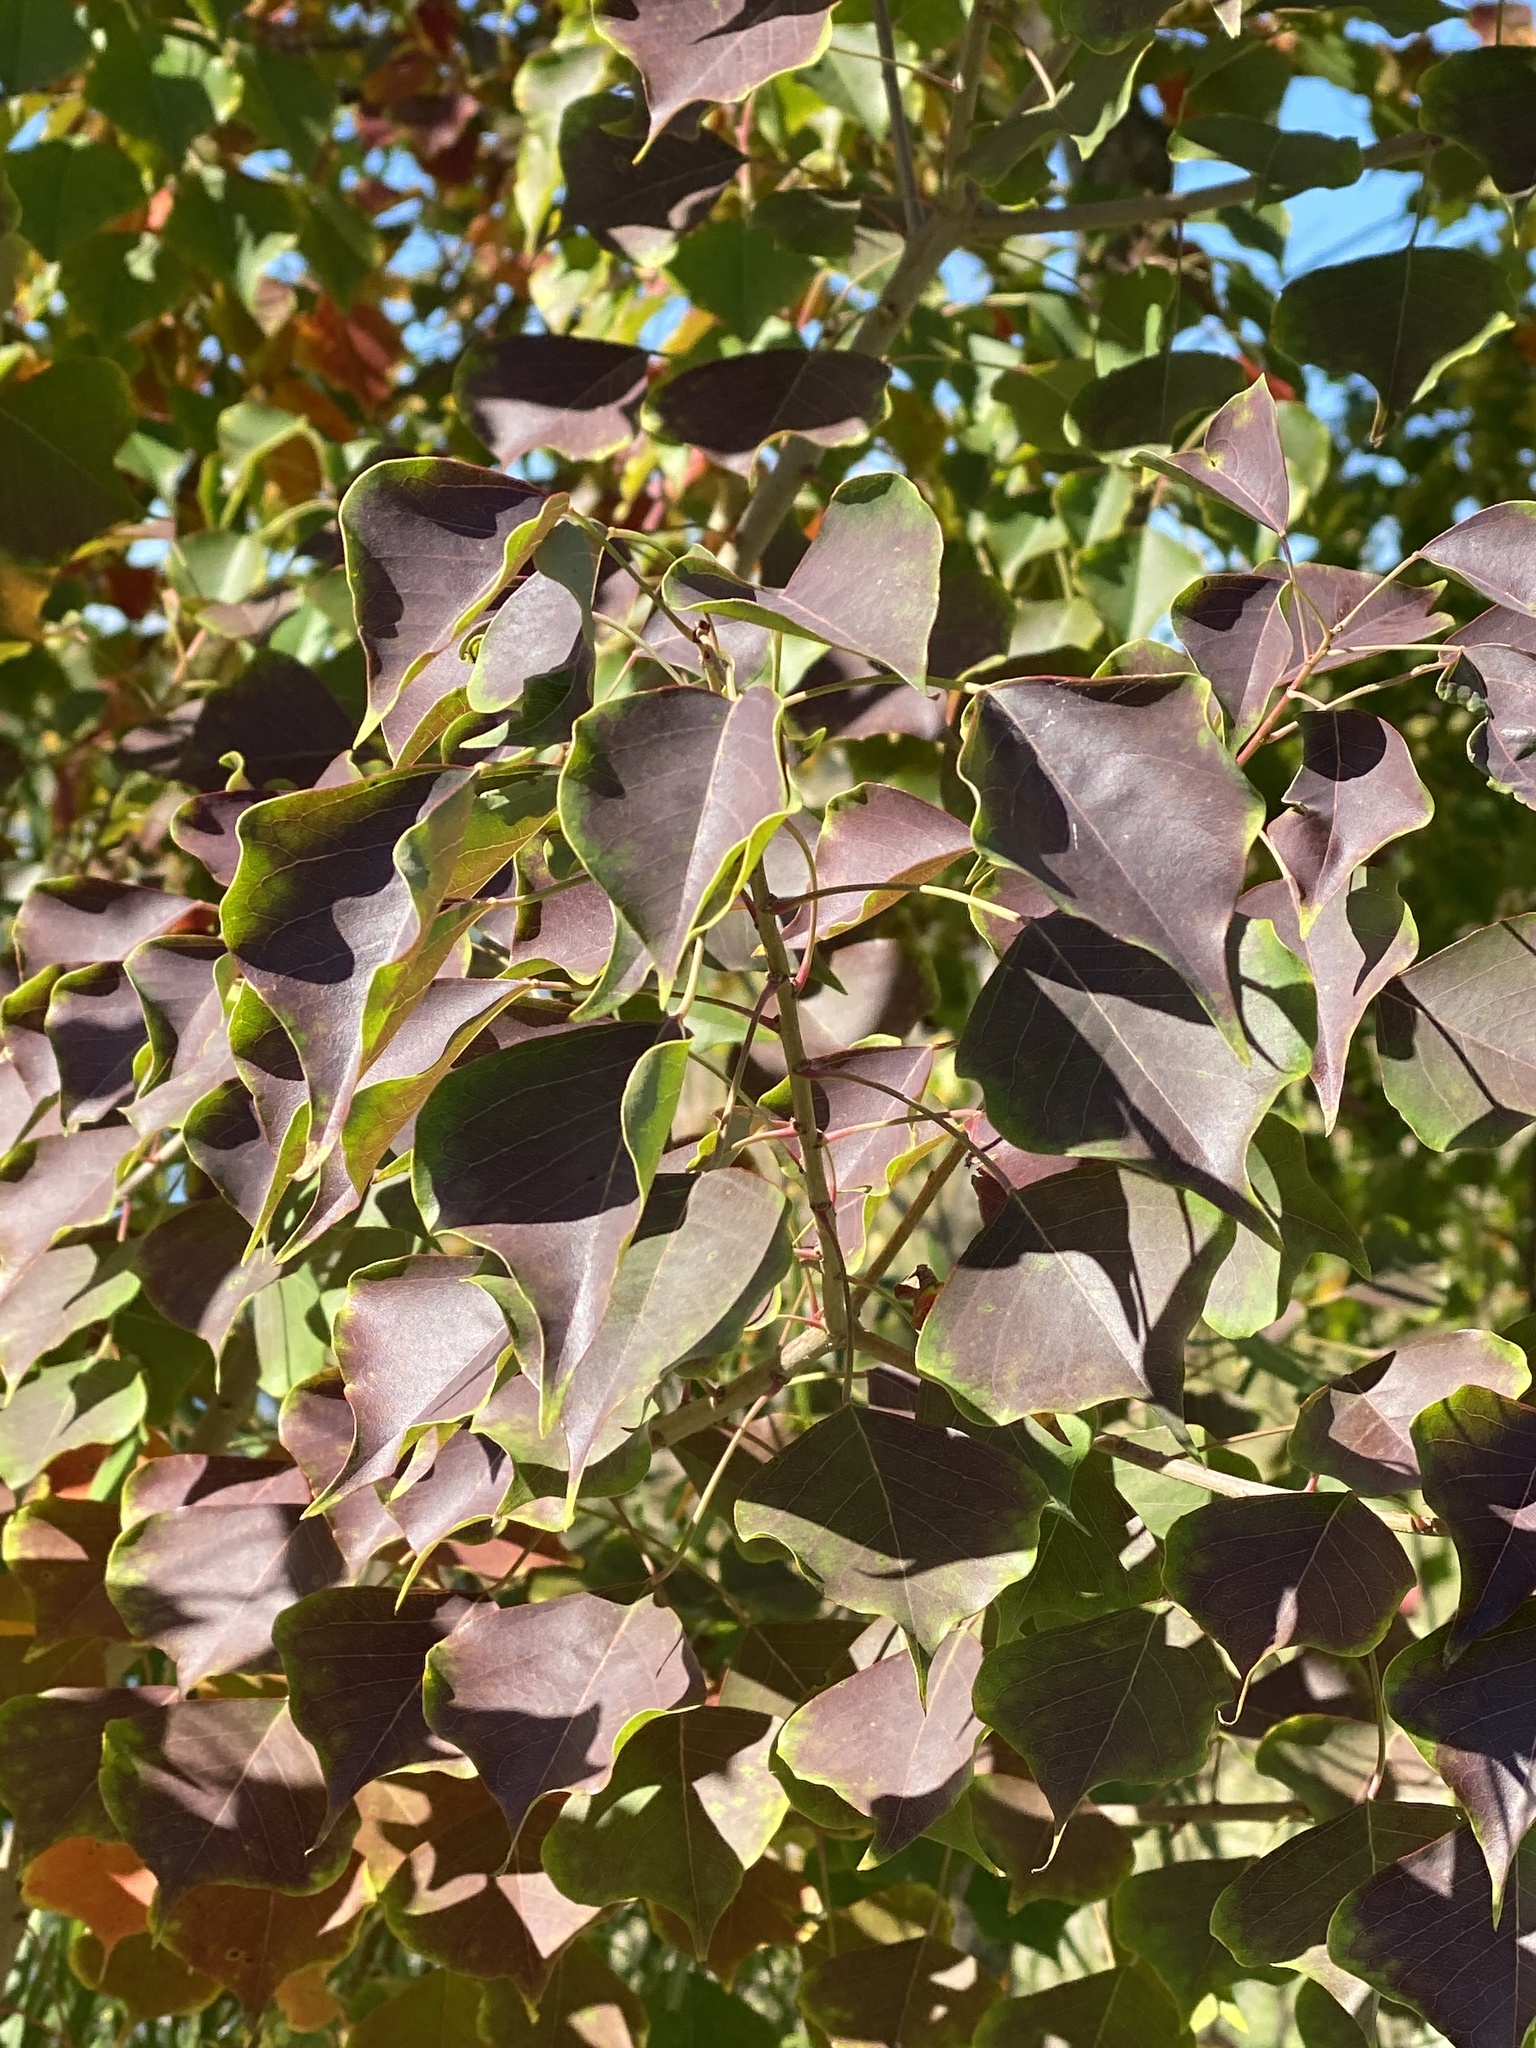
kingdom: Plantae
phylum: Tracheophyta
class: Magnoliopsida
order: Malpighiales
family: Euphorbiaceae
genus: Triadica
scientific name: Triadica sebifera
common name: Chinese tallow
